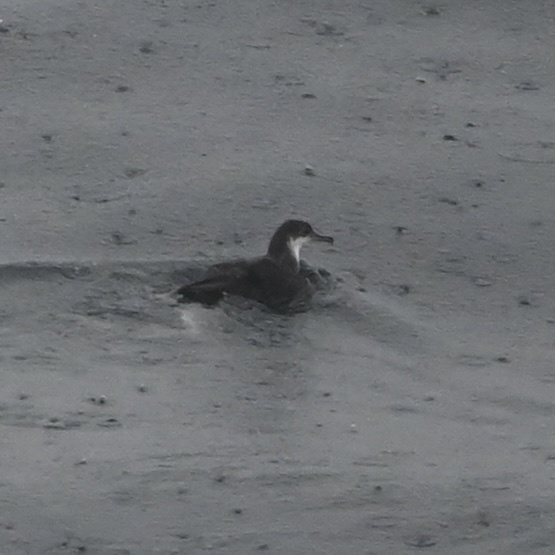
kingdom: Animalia
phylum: Chordata
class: Aves
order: Procellariiformes
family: Procellariidae
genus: Puffinus
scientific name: Puffinus puffinus
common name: Manx shearwater
